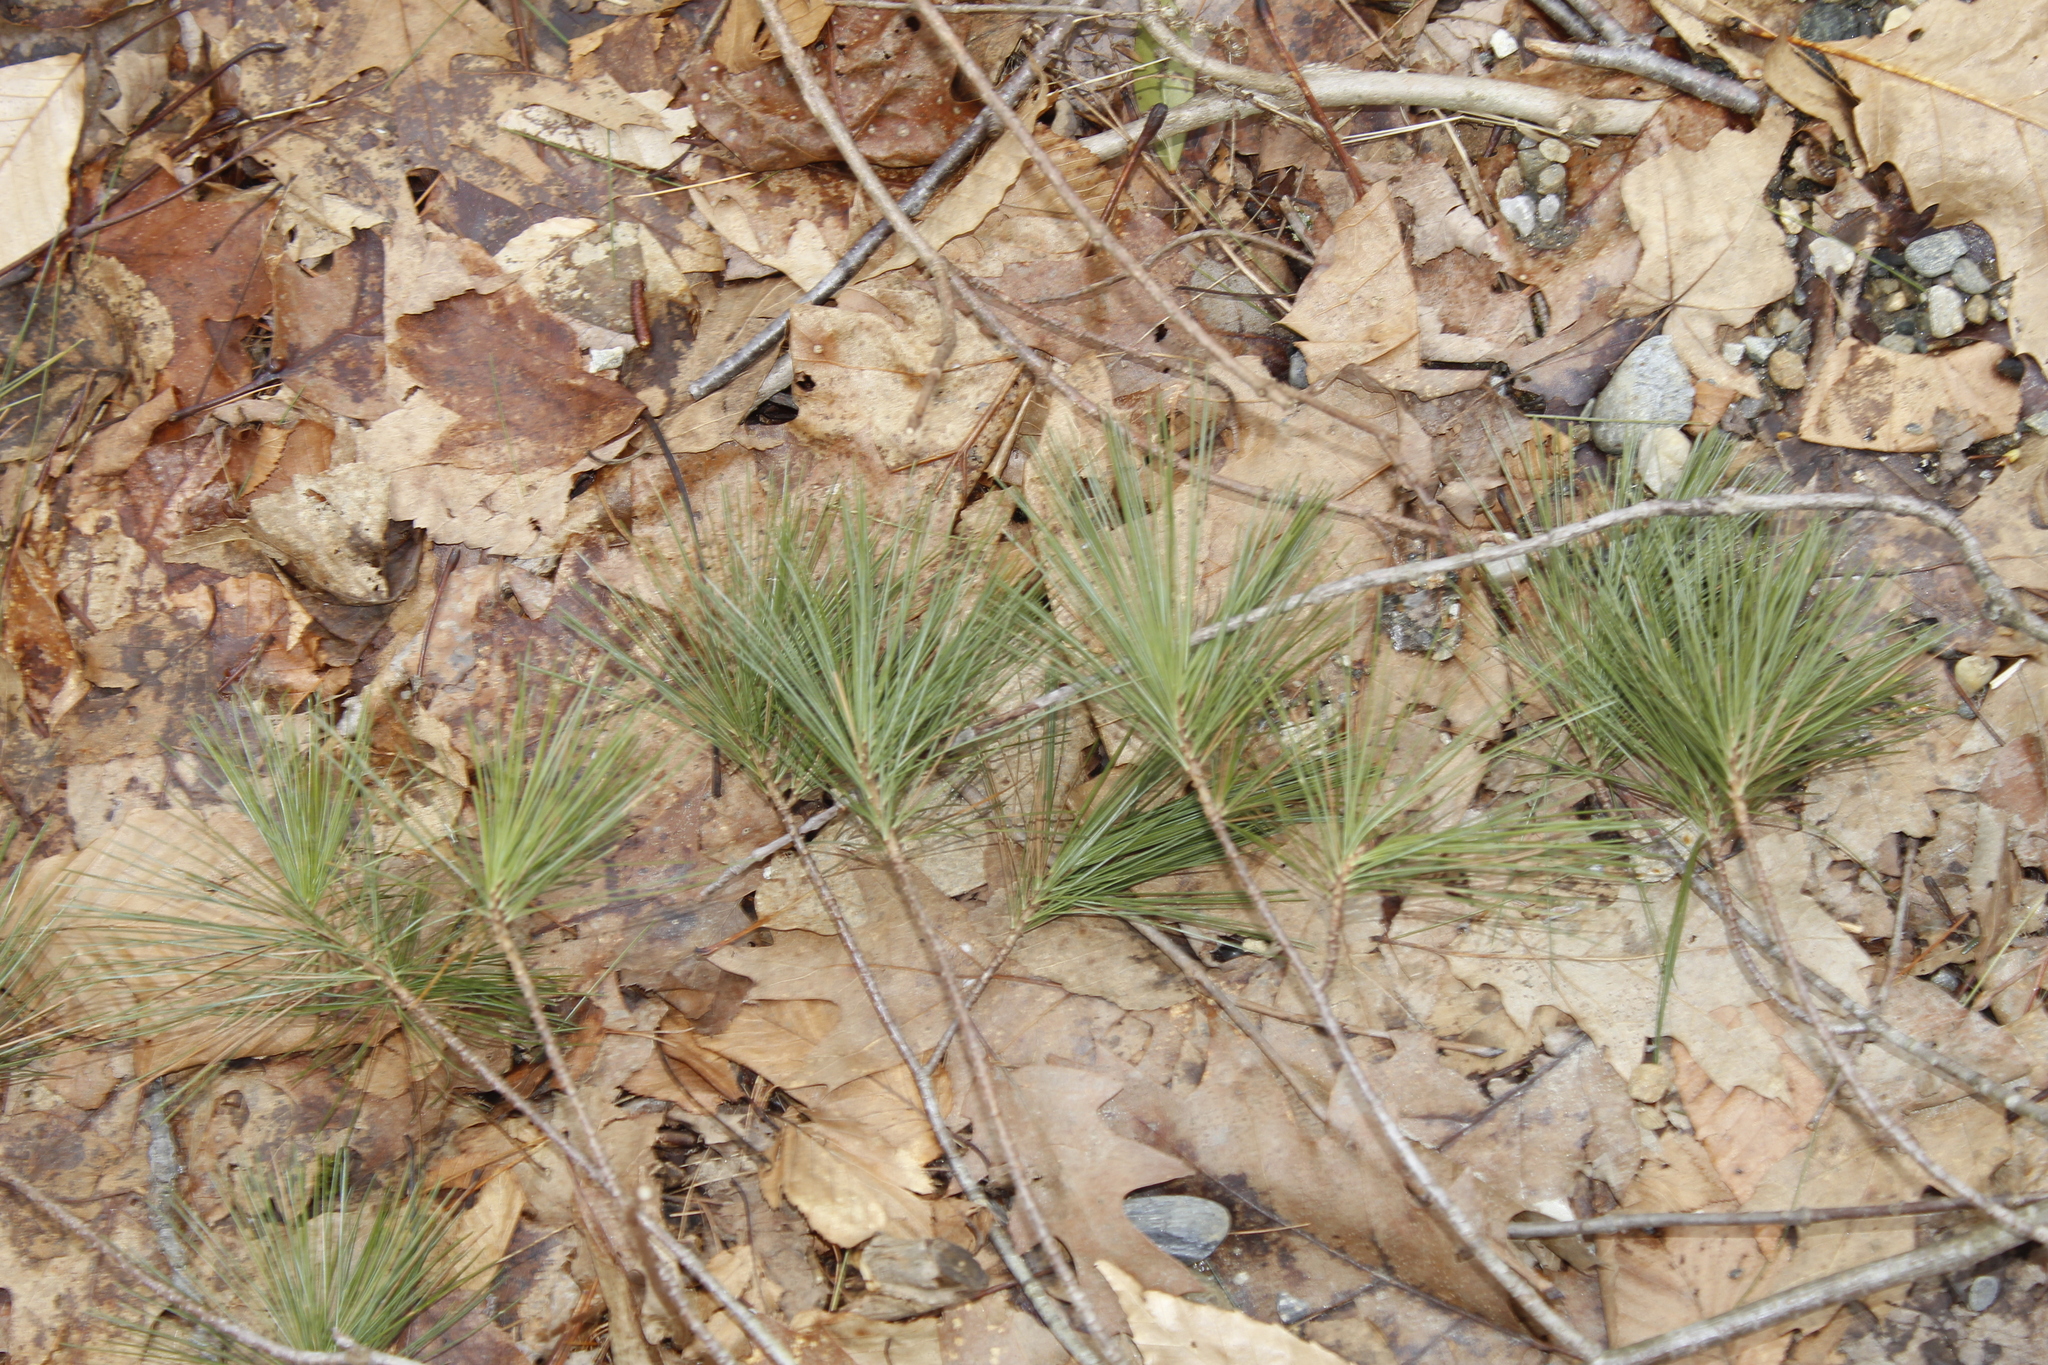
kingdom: Plantae
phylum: Tracheophyta
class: Pinopsida
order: Pinales
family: Pinaceae
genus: Pinus
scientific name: Pinus strobus
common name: Weymouth pine
